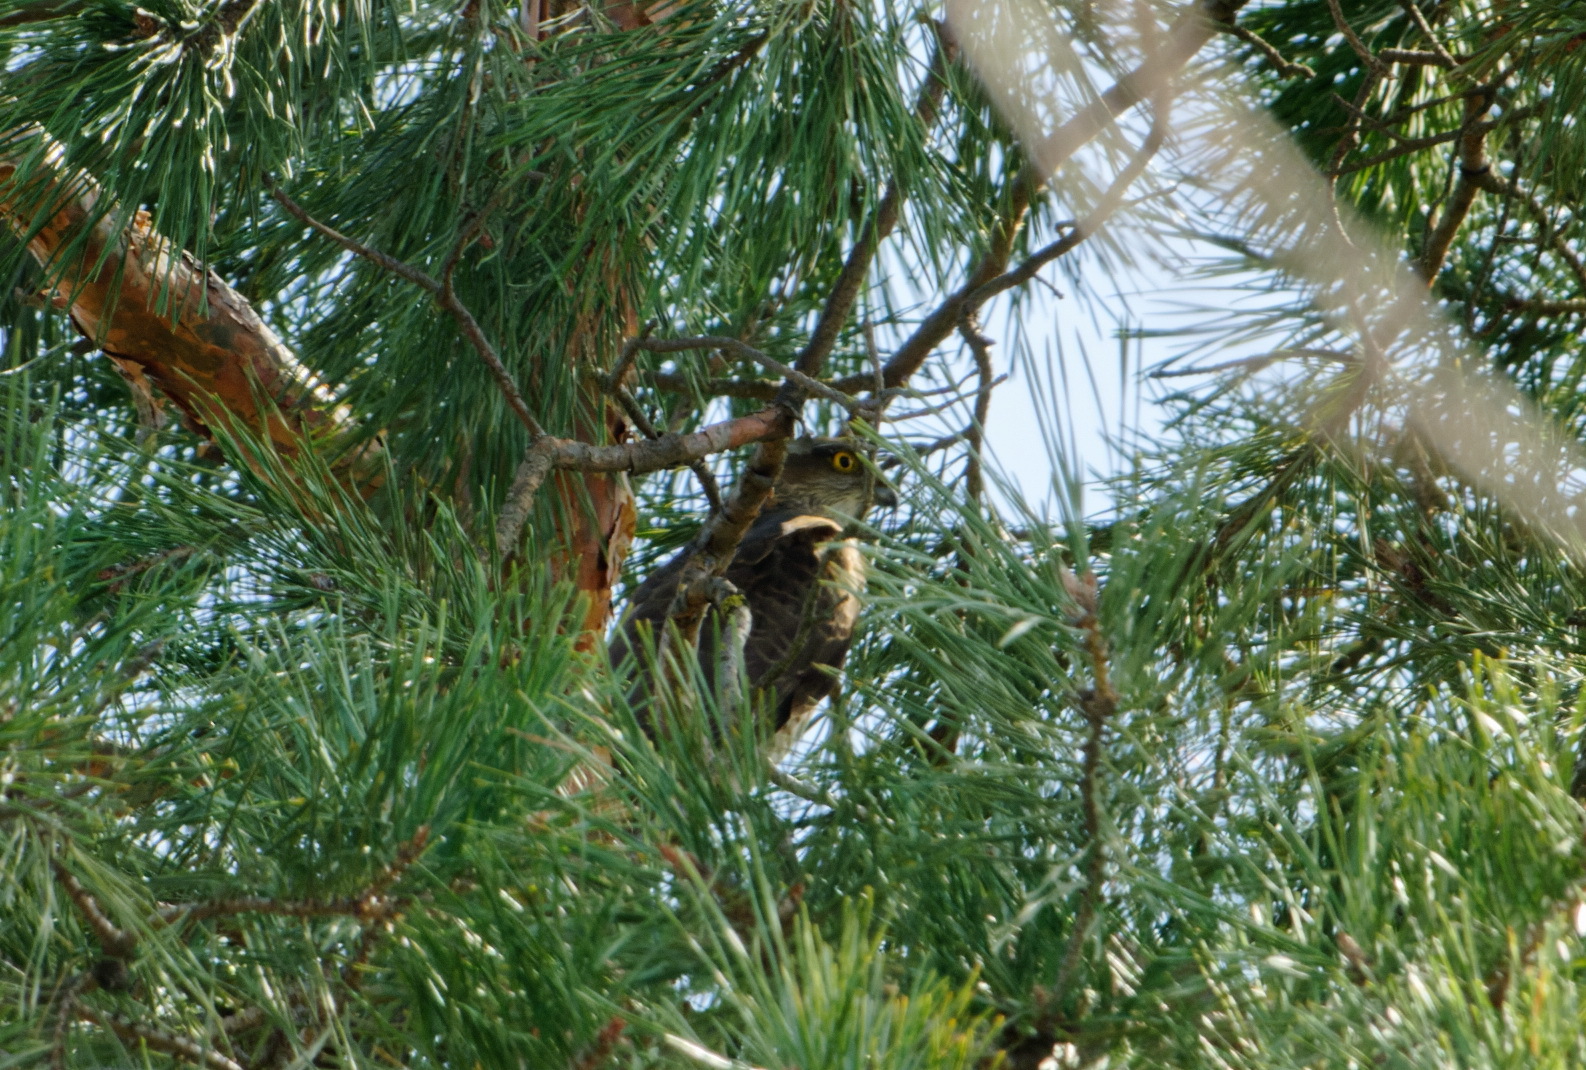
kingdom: Animalia
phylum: Chordata
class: Aves
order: Accipitriformes
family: Accipitridae
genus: Accipiter
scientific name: Accipiter nisus
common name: Eurasian sparrowhawk
